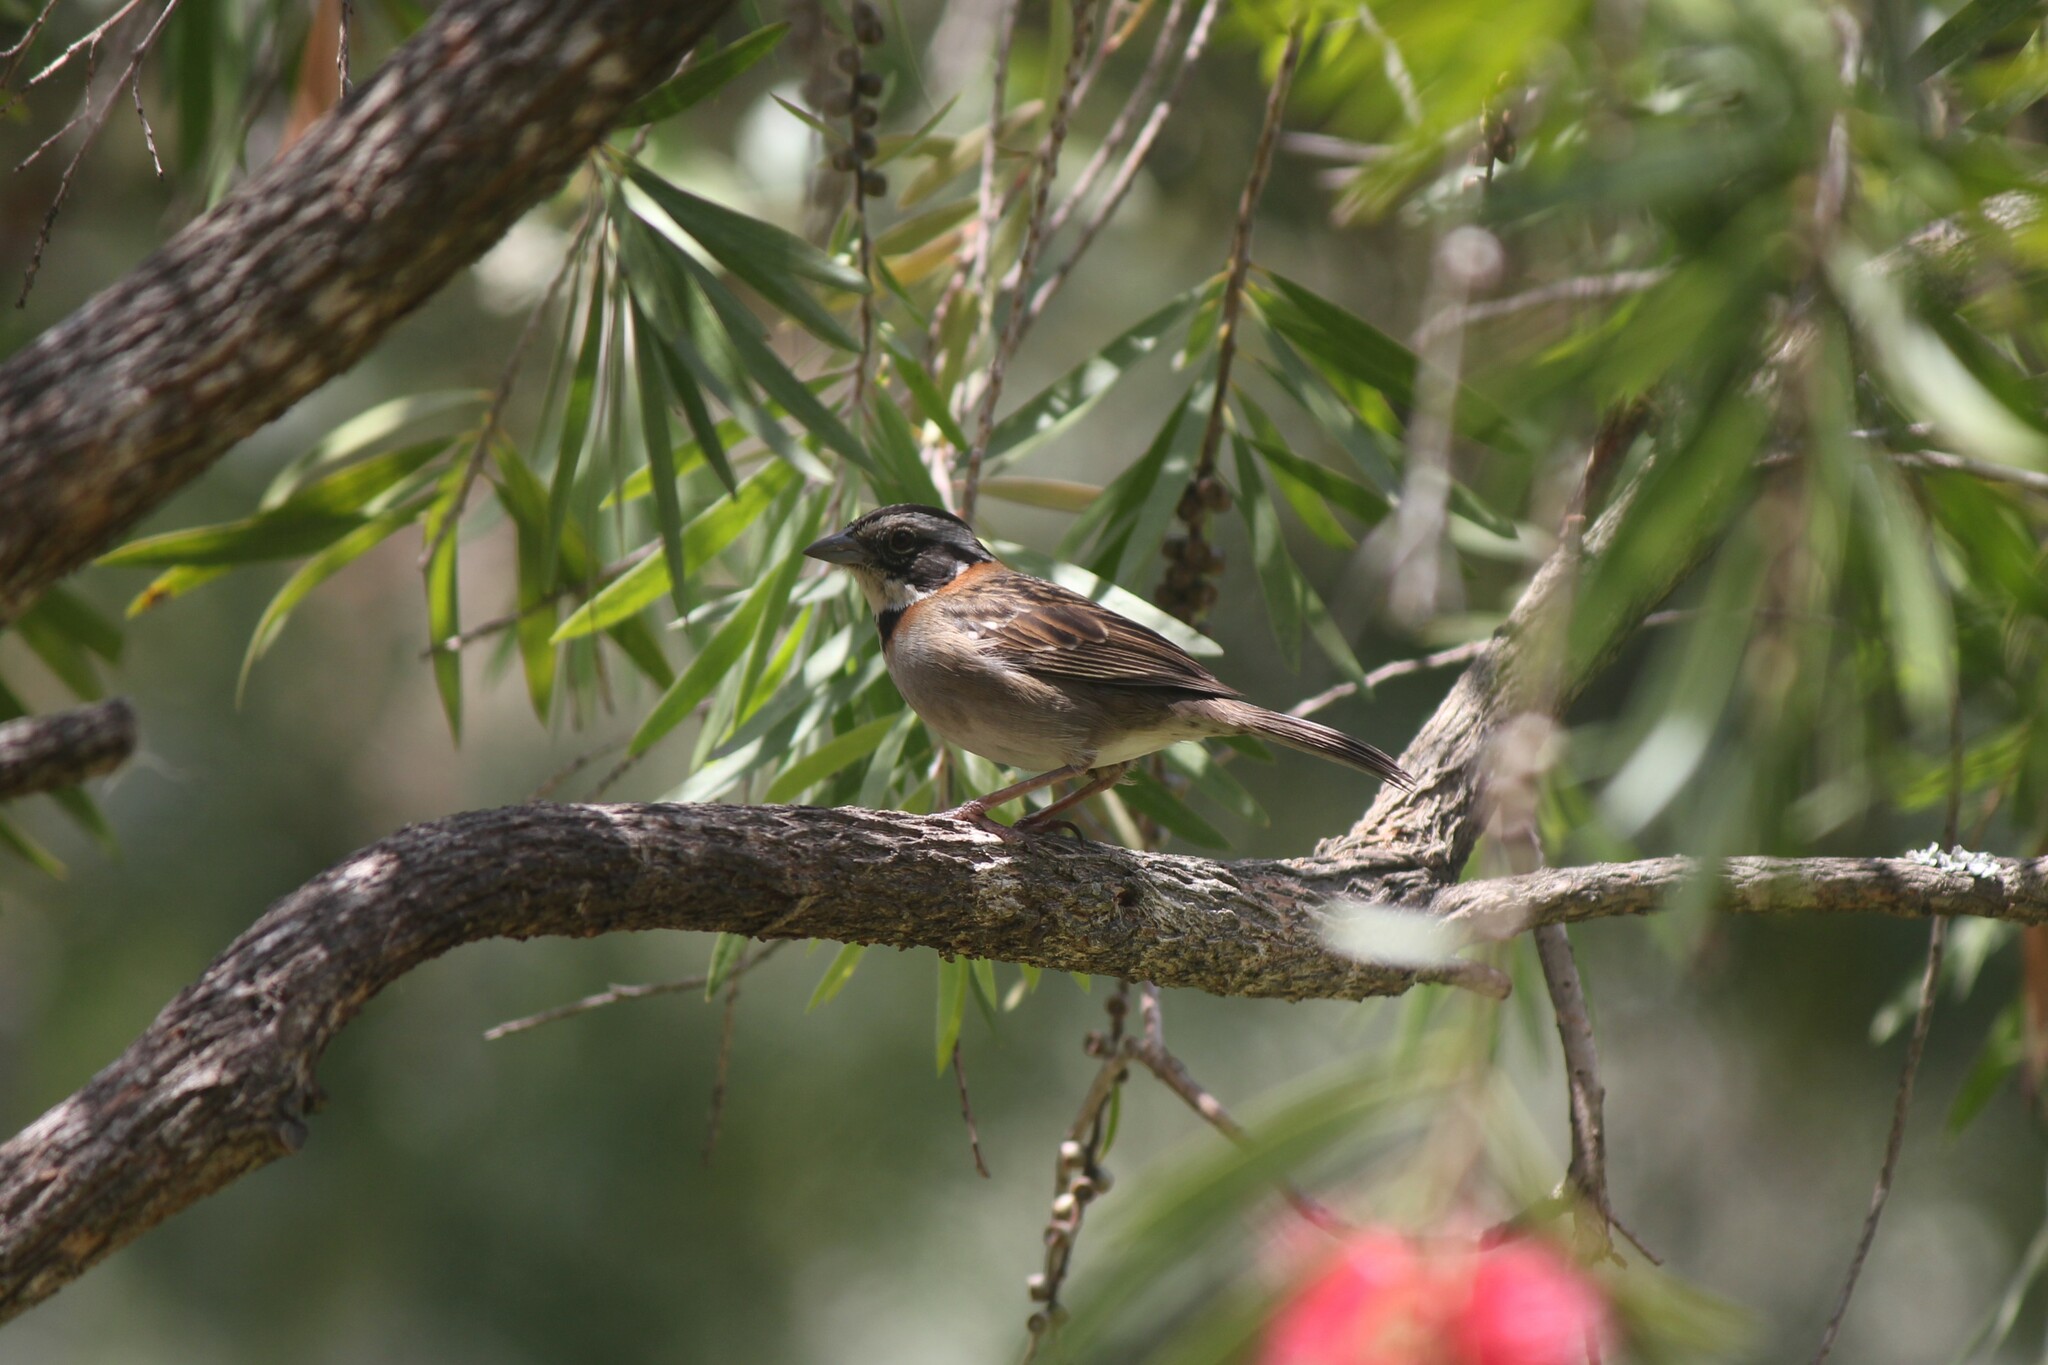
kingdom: Animalia
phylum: Chordata
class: Aves
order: Passeriformes
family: Passerellidae
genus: Zonotrichia
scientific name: Zonotrichia capensis
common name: Rufous-collared sparrow
